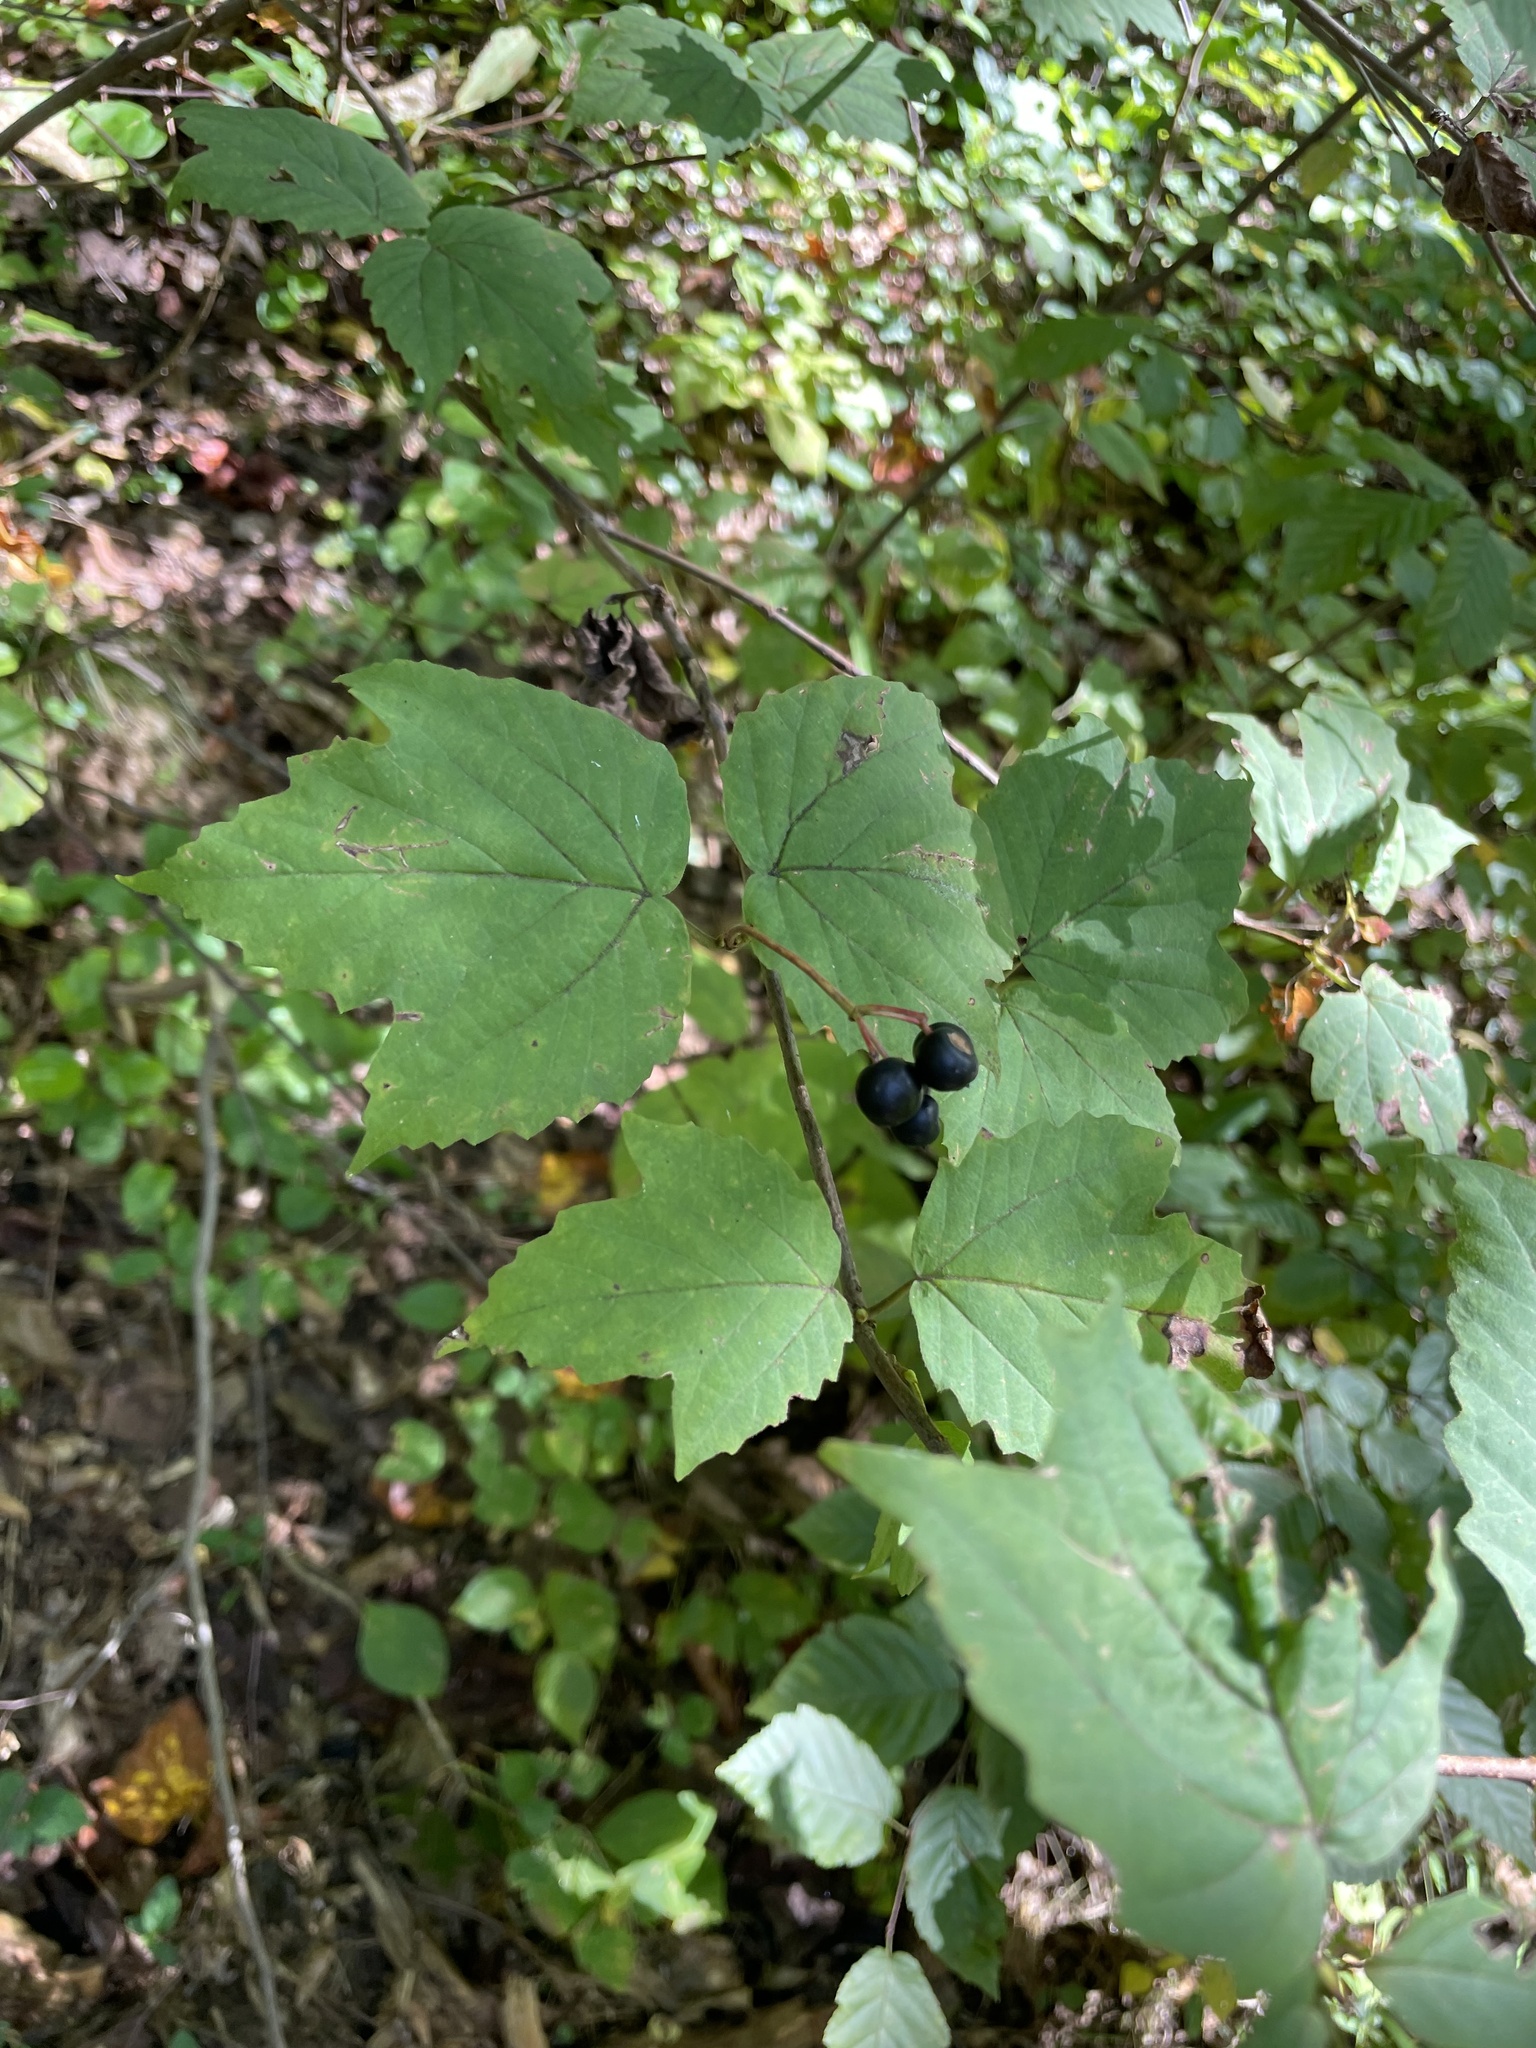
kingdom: Plantae
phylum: Tracheophyta
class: Magnoliopsida
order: Dipsacales
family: Viburnaceae
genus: Viburnum
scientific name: Viburnum acerifolium
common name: Dockmackie
